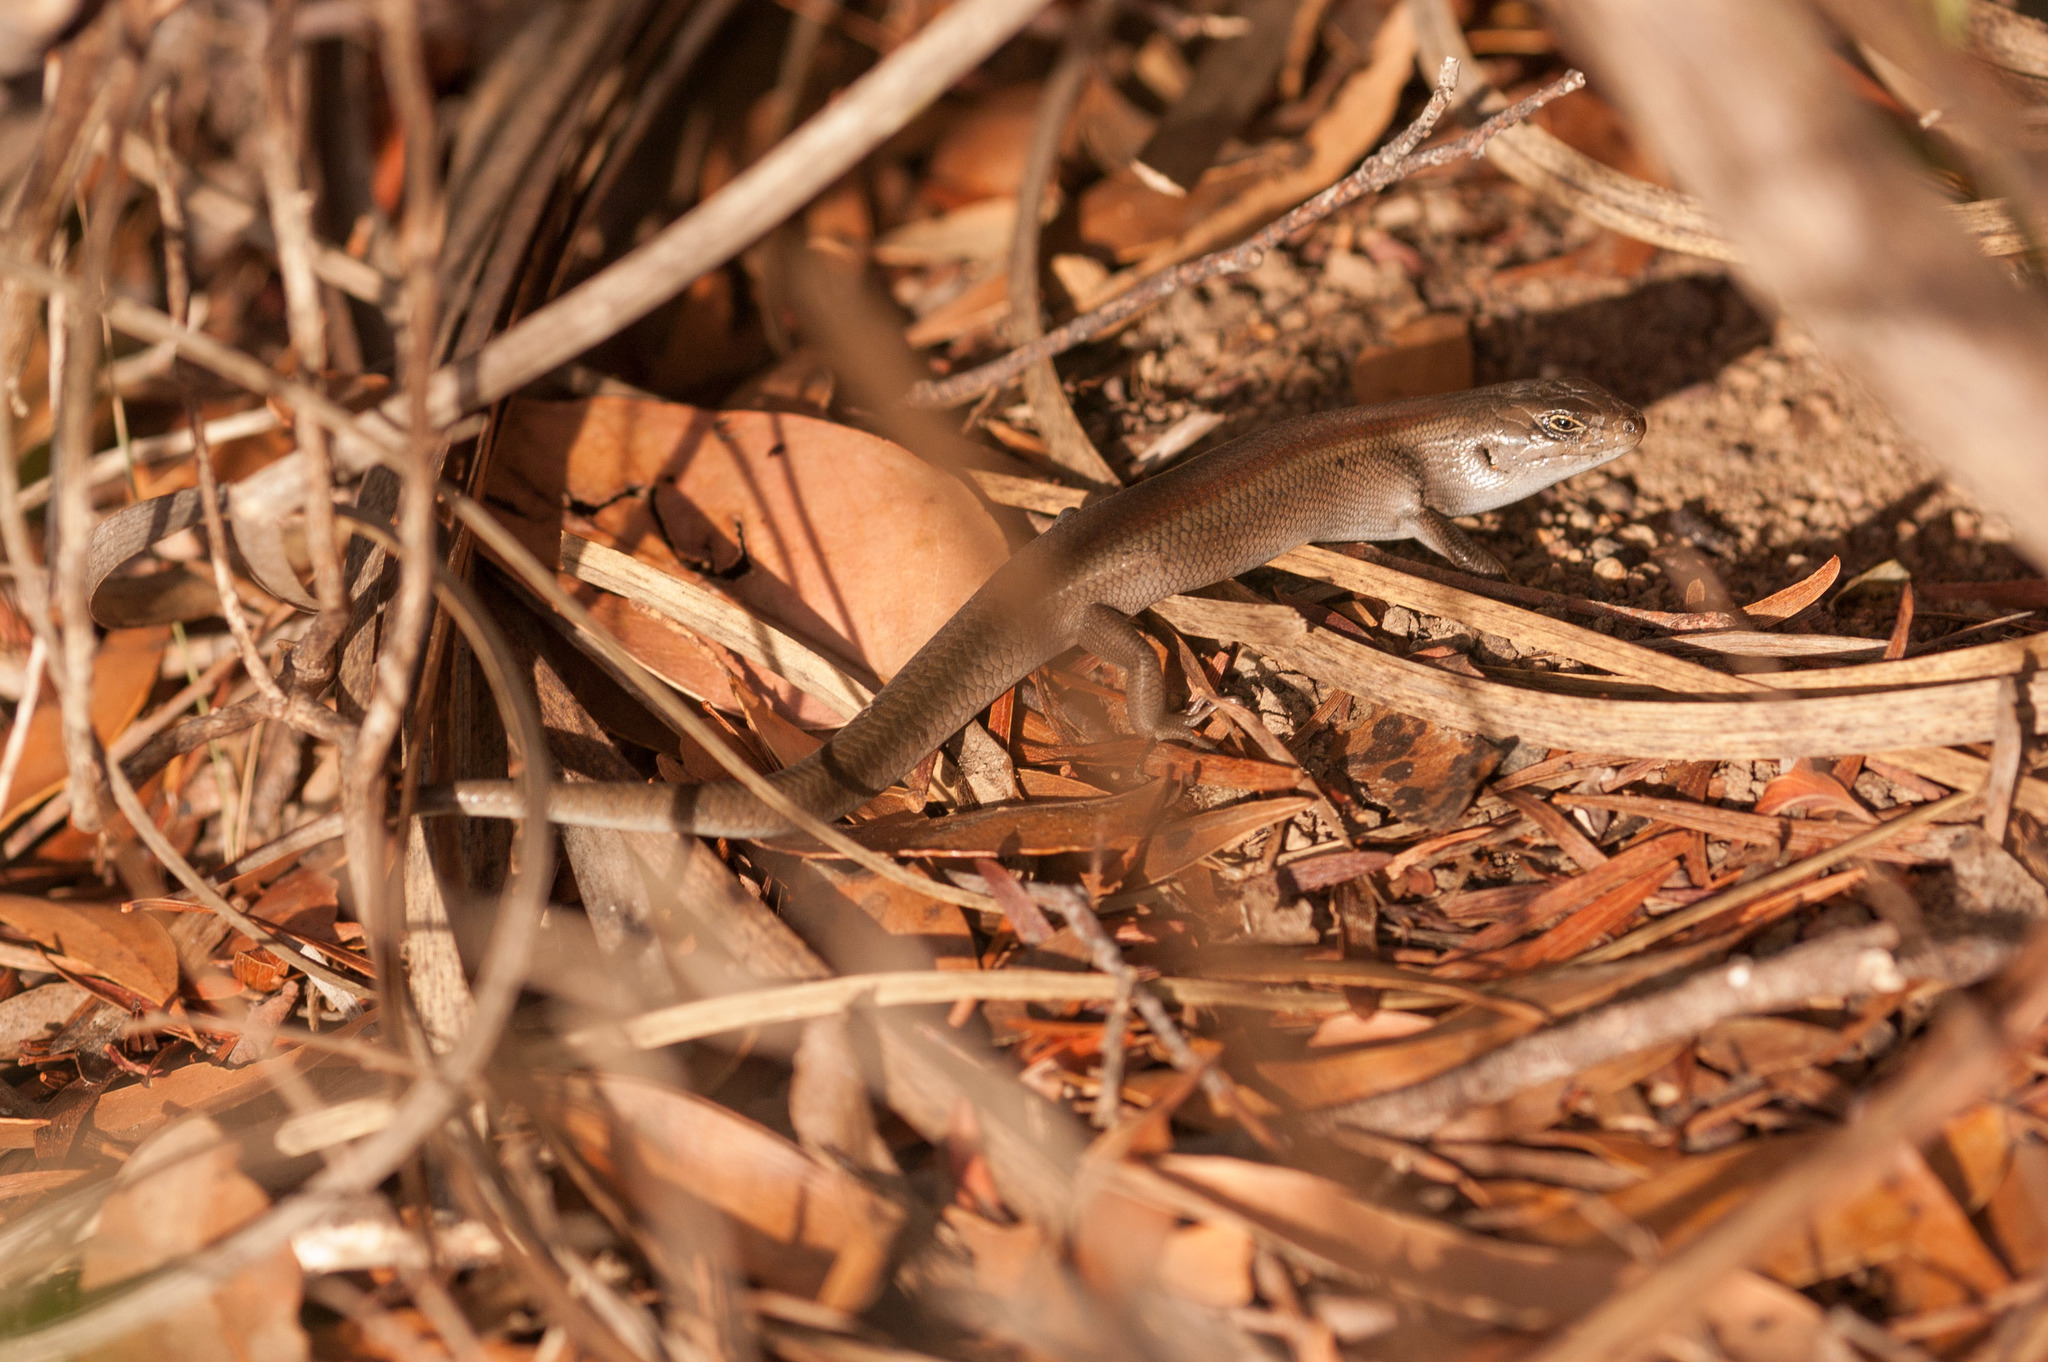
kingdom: Animalia
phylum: Chordata
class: Squamata
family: Scincidae
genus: Liopholis
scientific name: Liopholis whitii
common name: White's rock-skink
